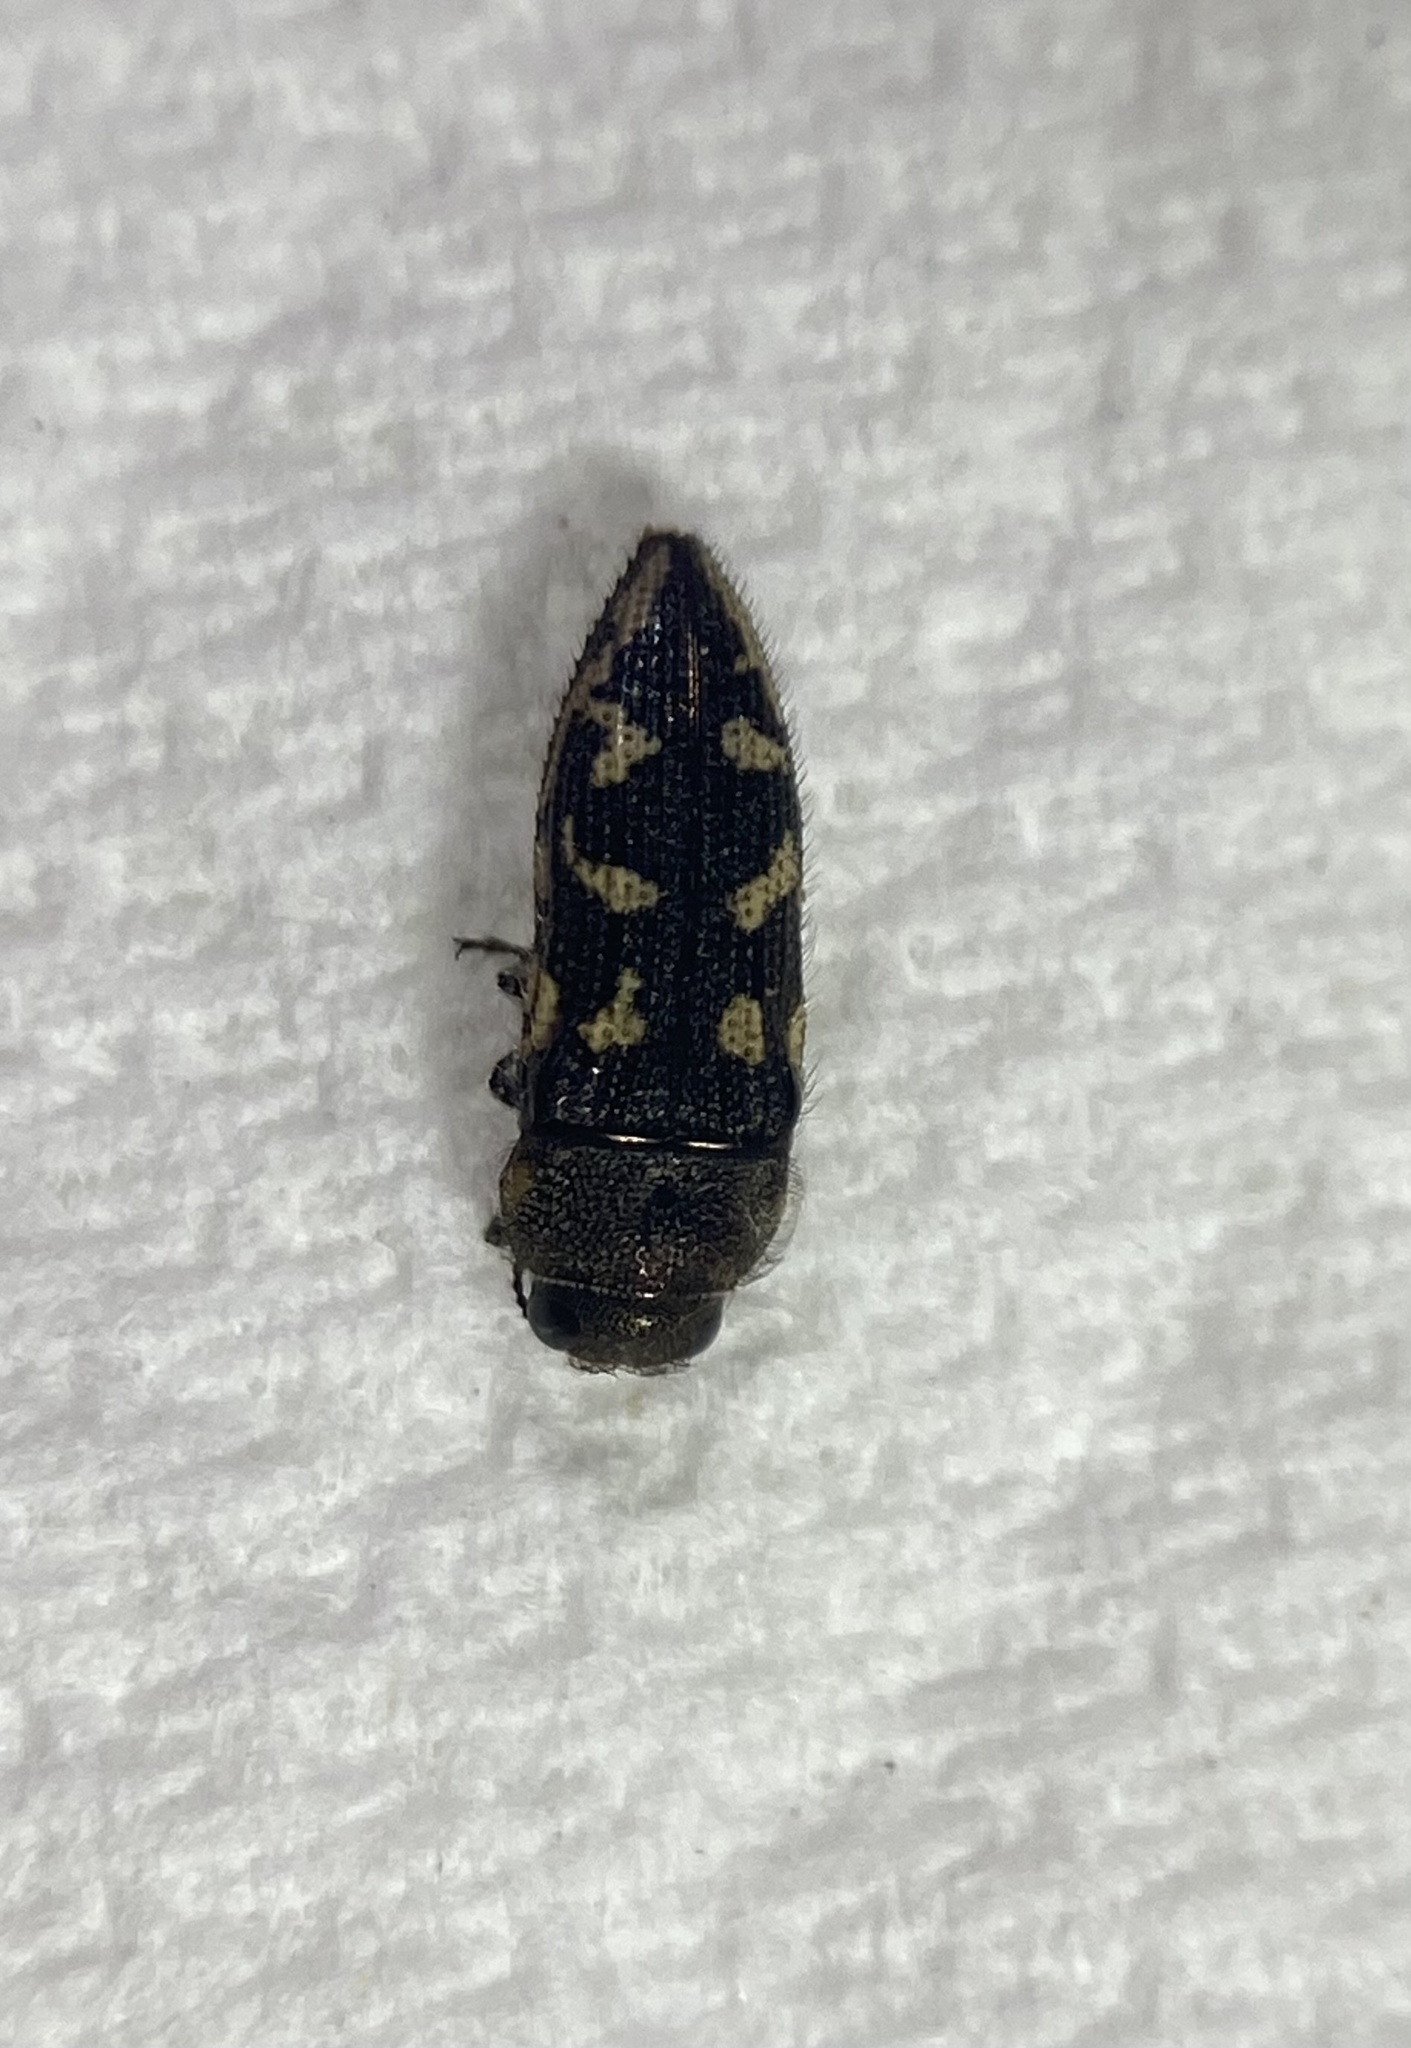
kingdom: Animalia
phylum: Arthropoda
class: Insecta
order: Coleoptera
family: Buprestidae
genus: Acmaeodera
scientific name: Acmaeodera bowditchi
